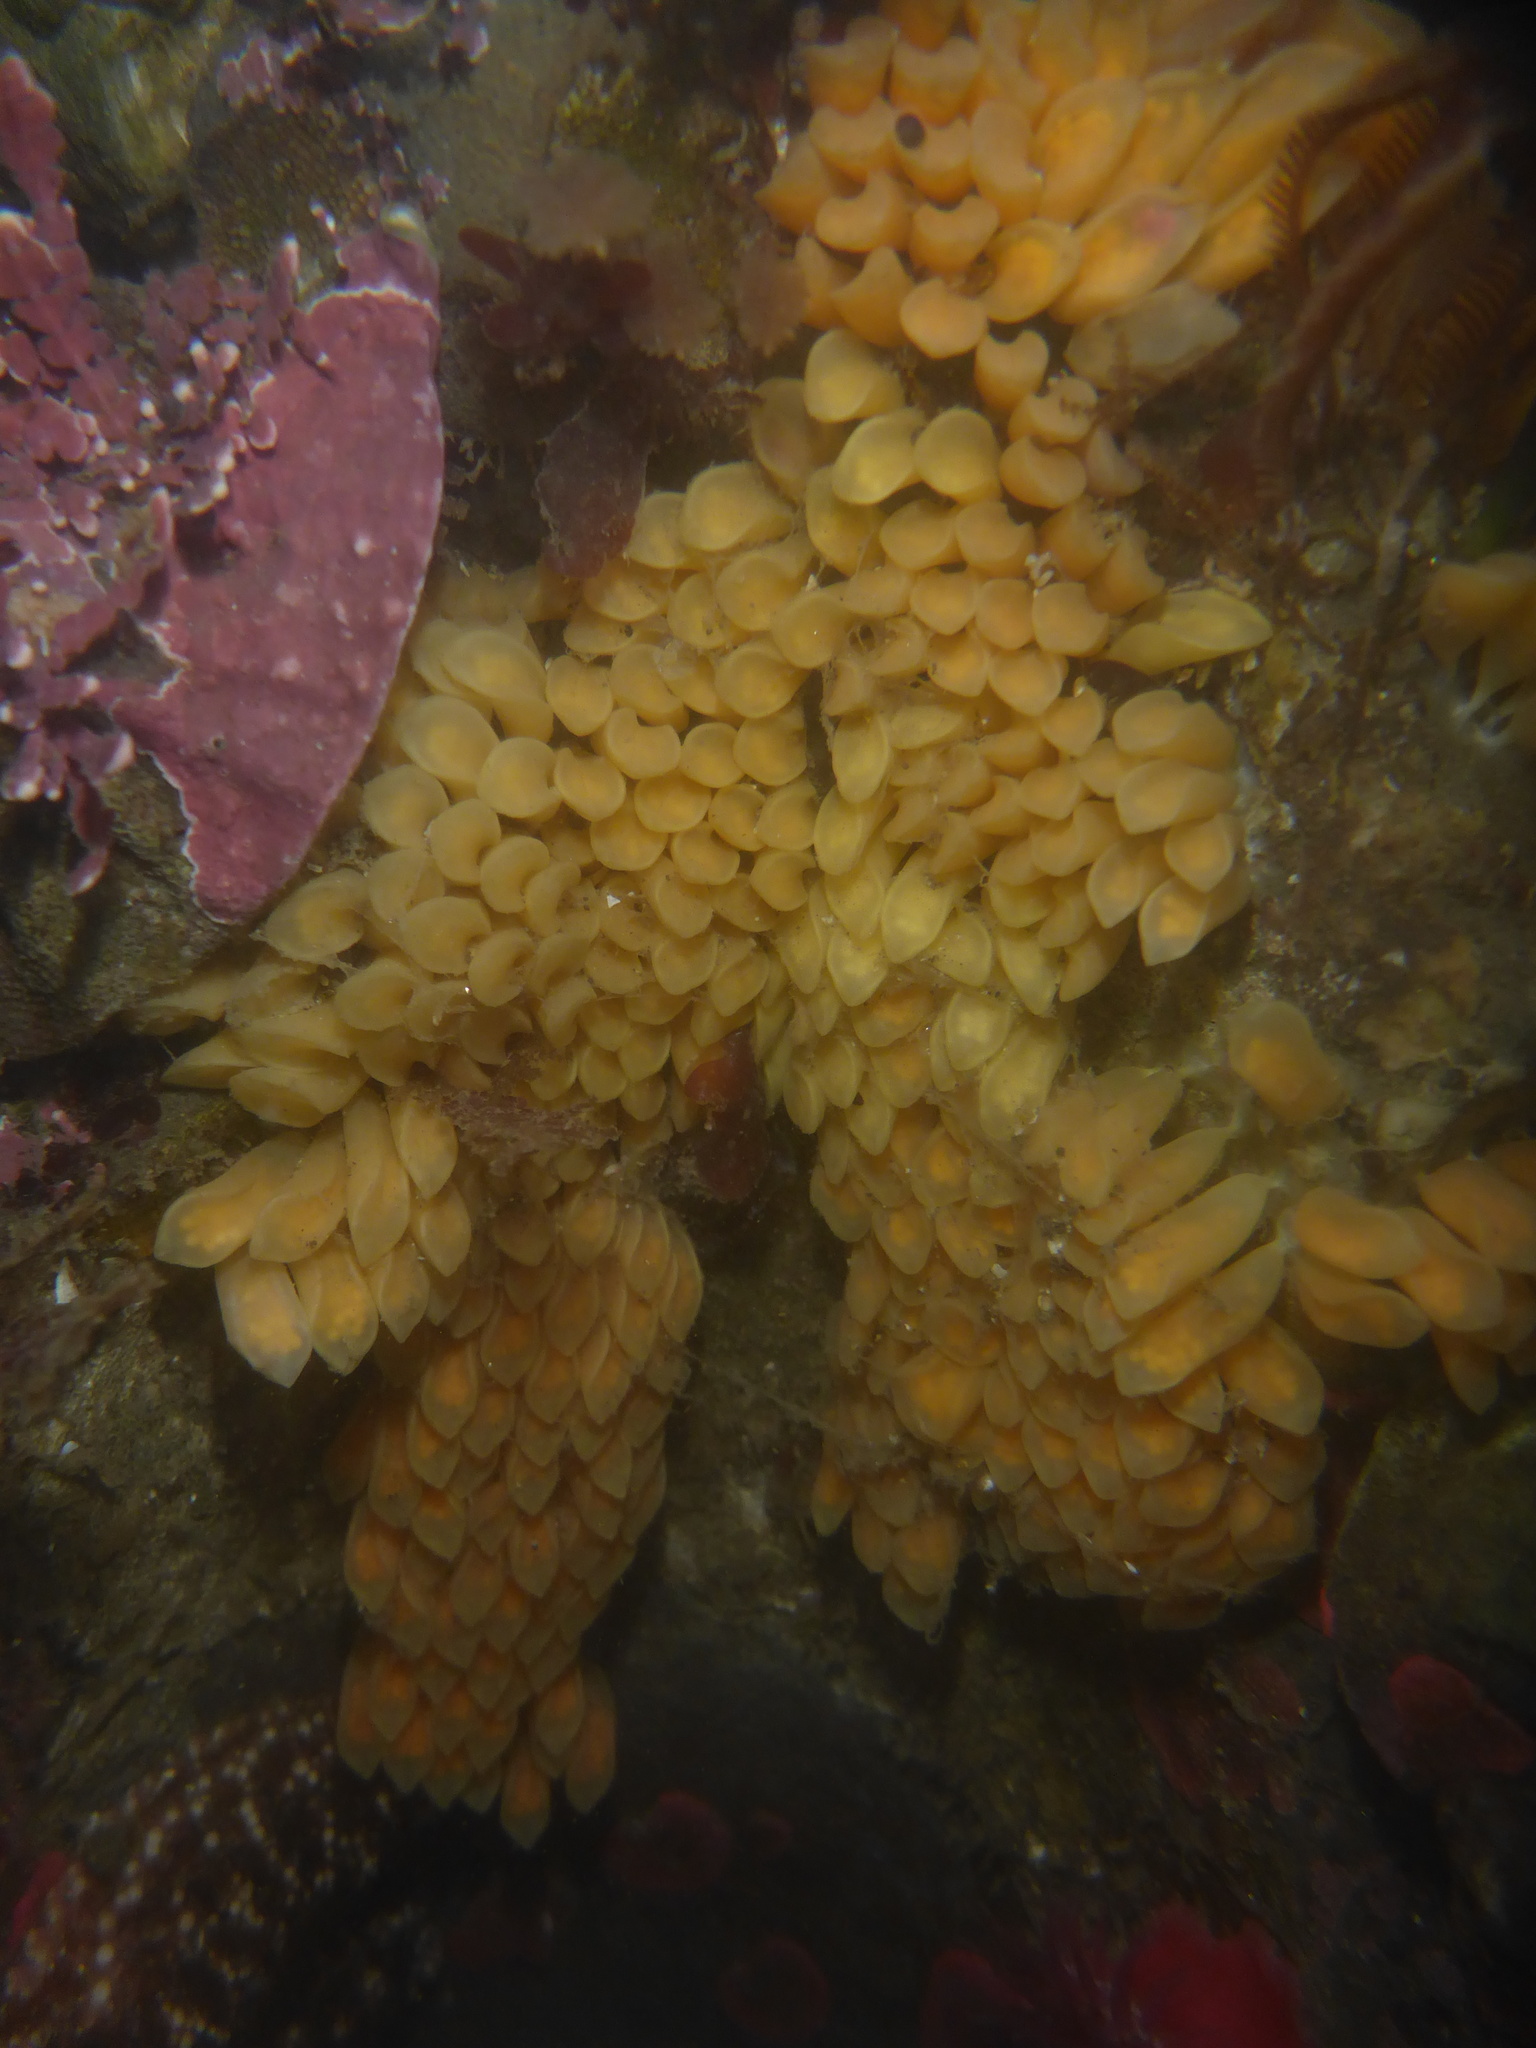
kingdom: Animalia
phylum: Mollusca
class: Gastropoda
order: Neogastropoda
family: Muricidae
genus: Ceratostoma
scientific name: Ceratostoma foliatum
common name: Foliate thorn purpura
